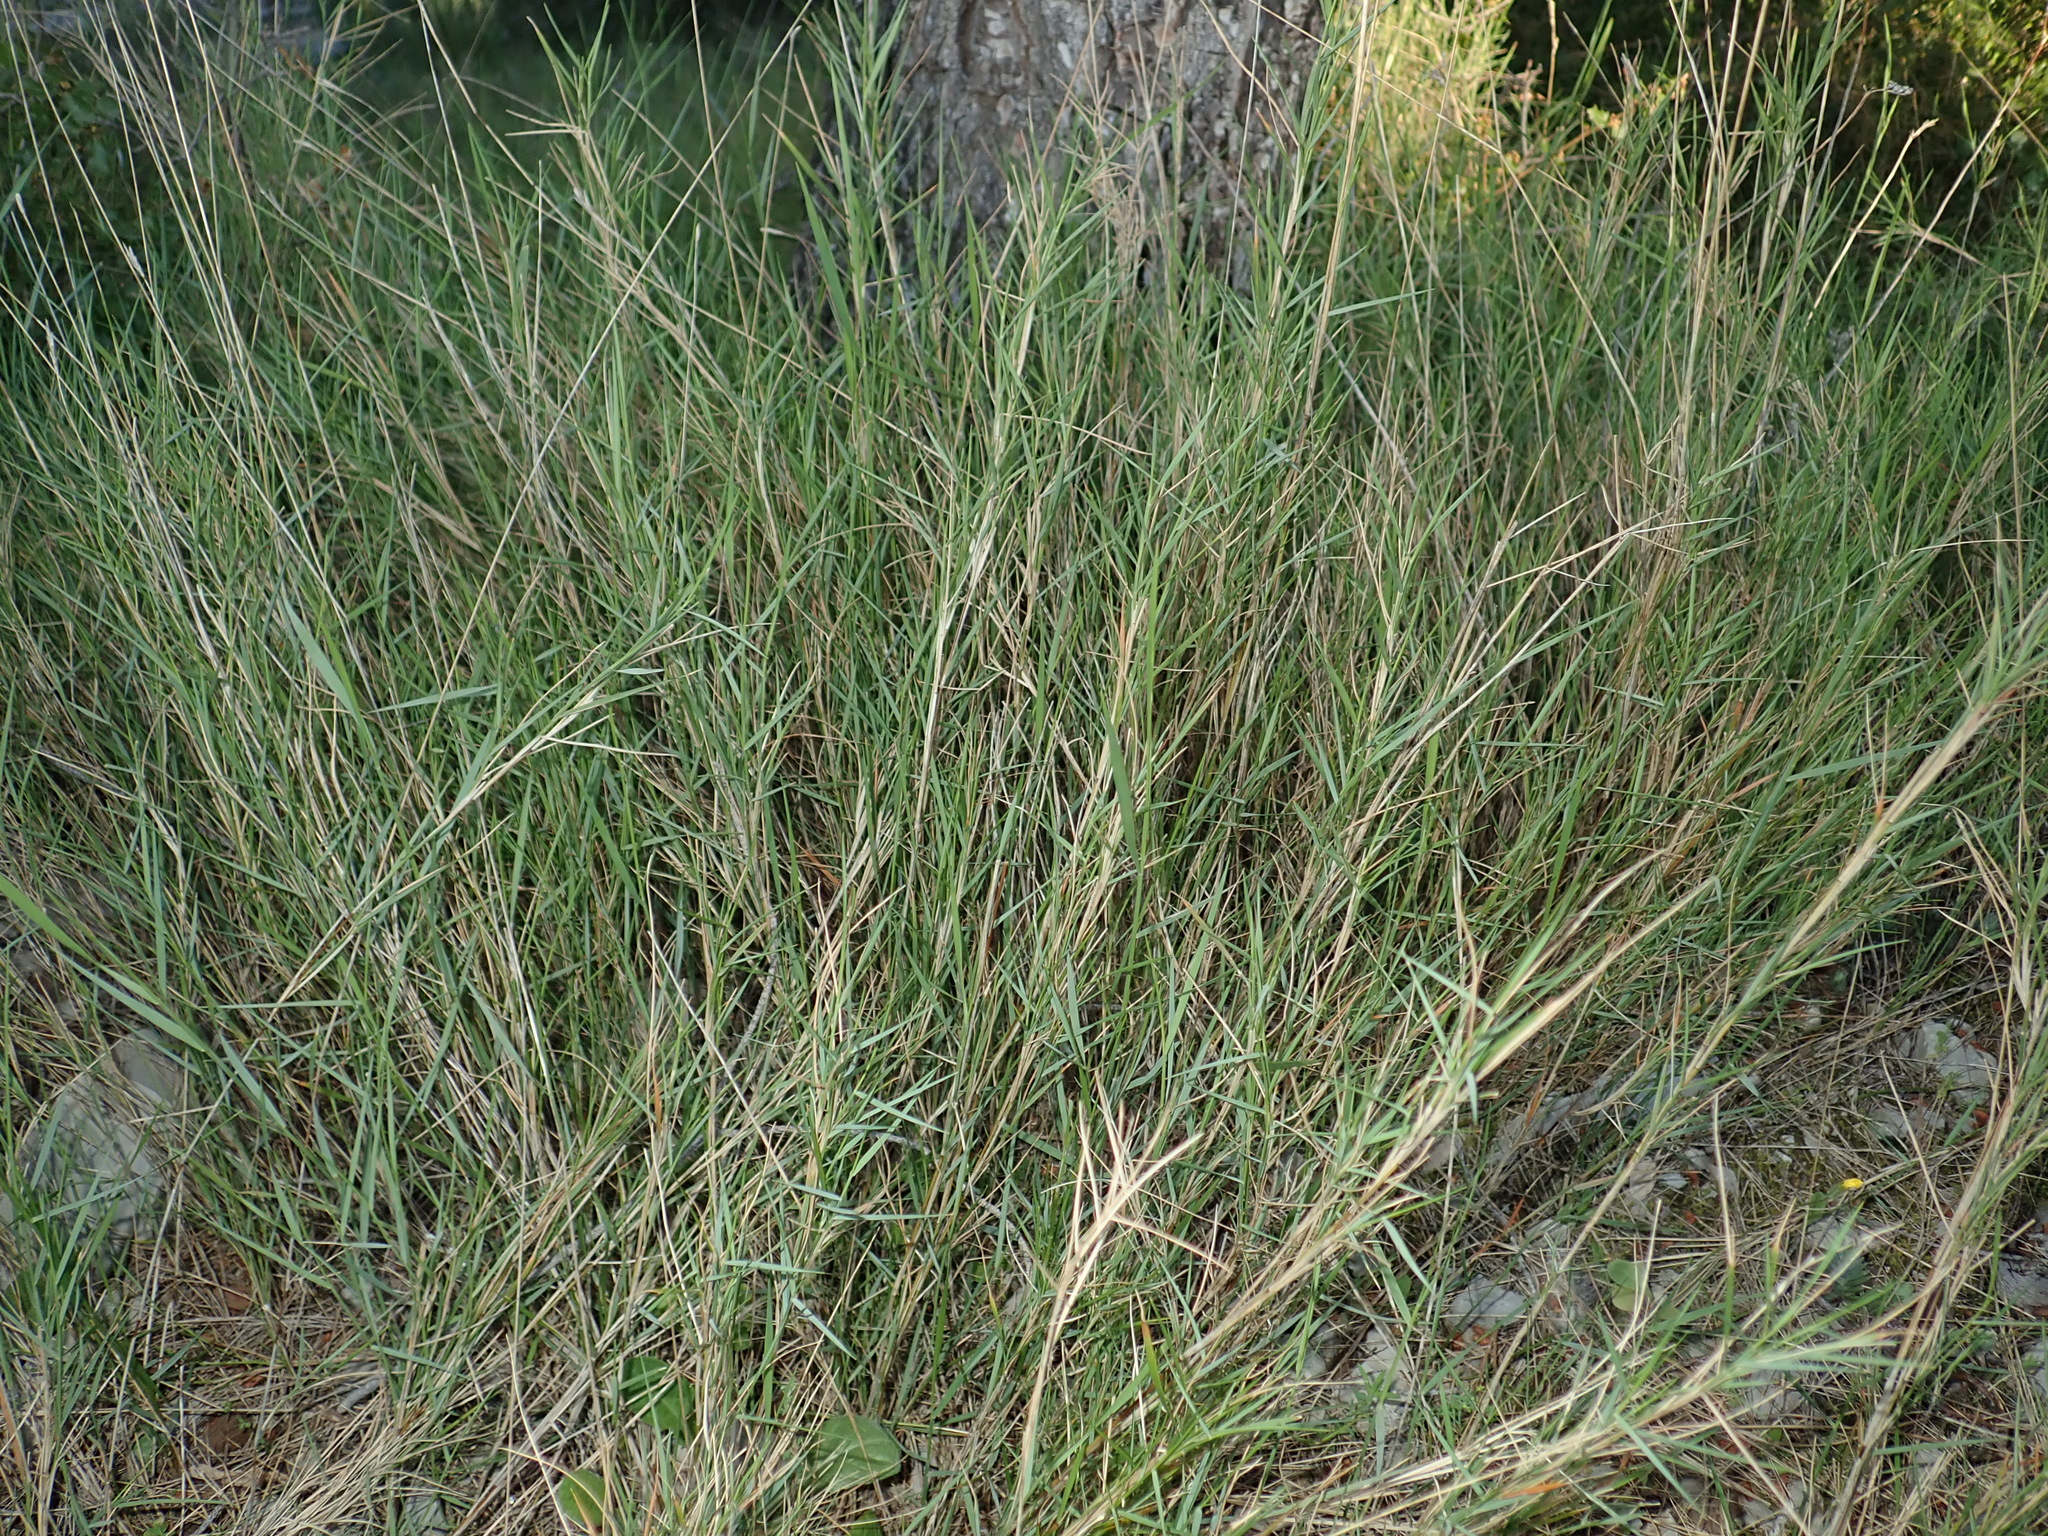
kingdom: Plantae
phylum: Tracheophyta
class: Liliopsida
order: Poales
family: Poaceae
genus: Brachypodium
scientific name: Brachypodium retusum
